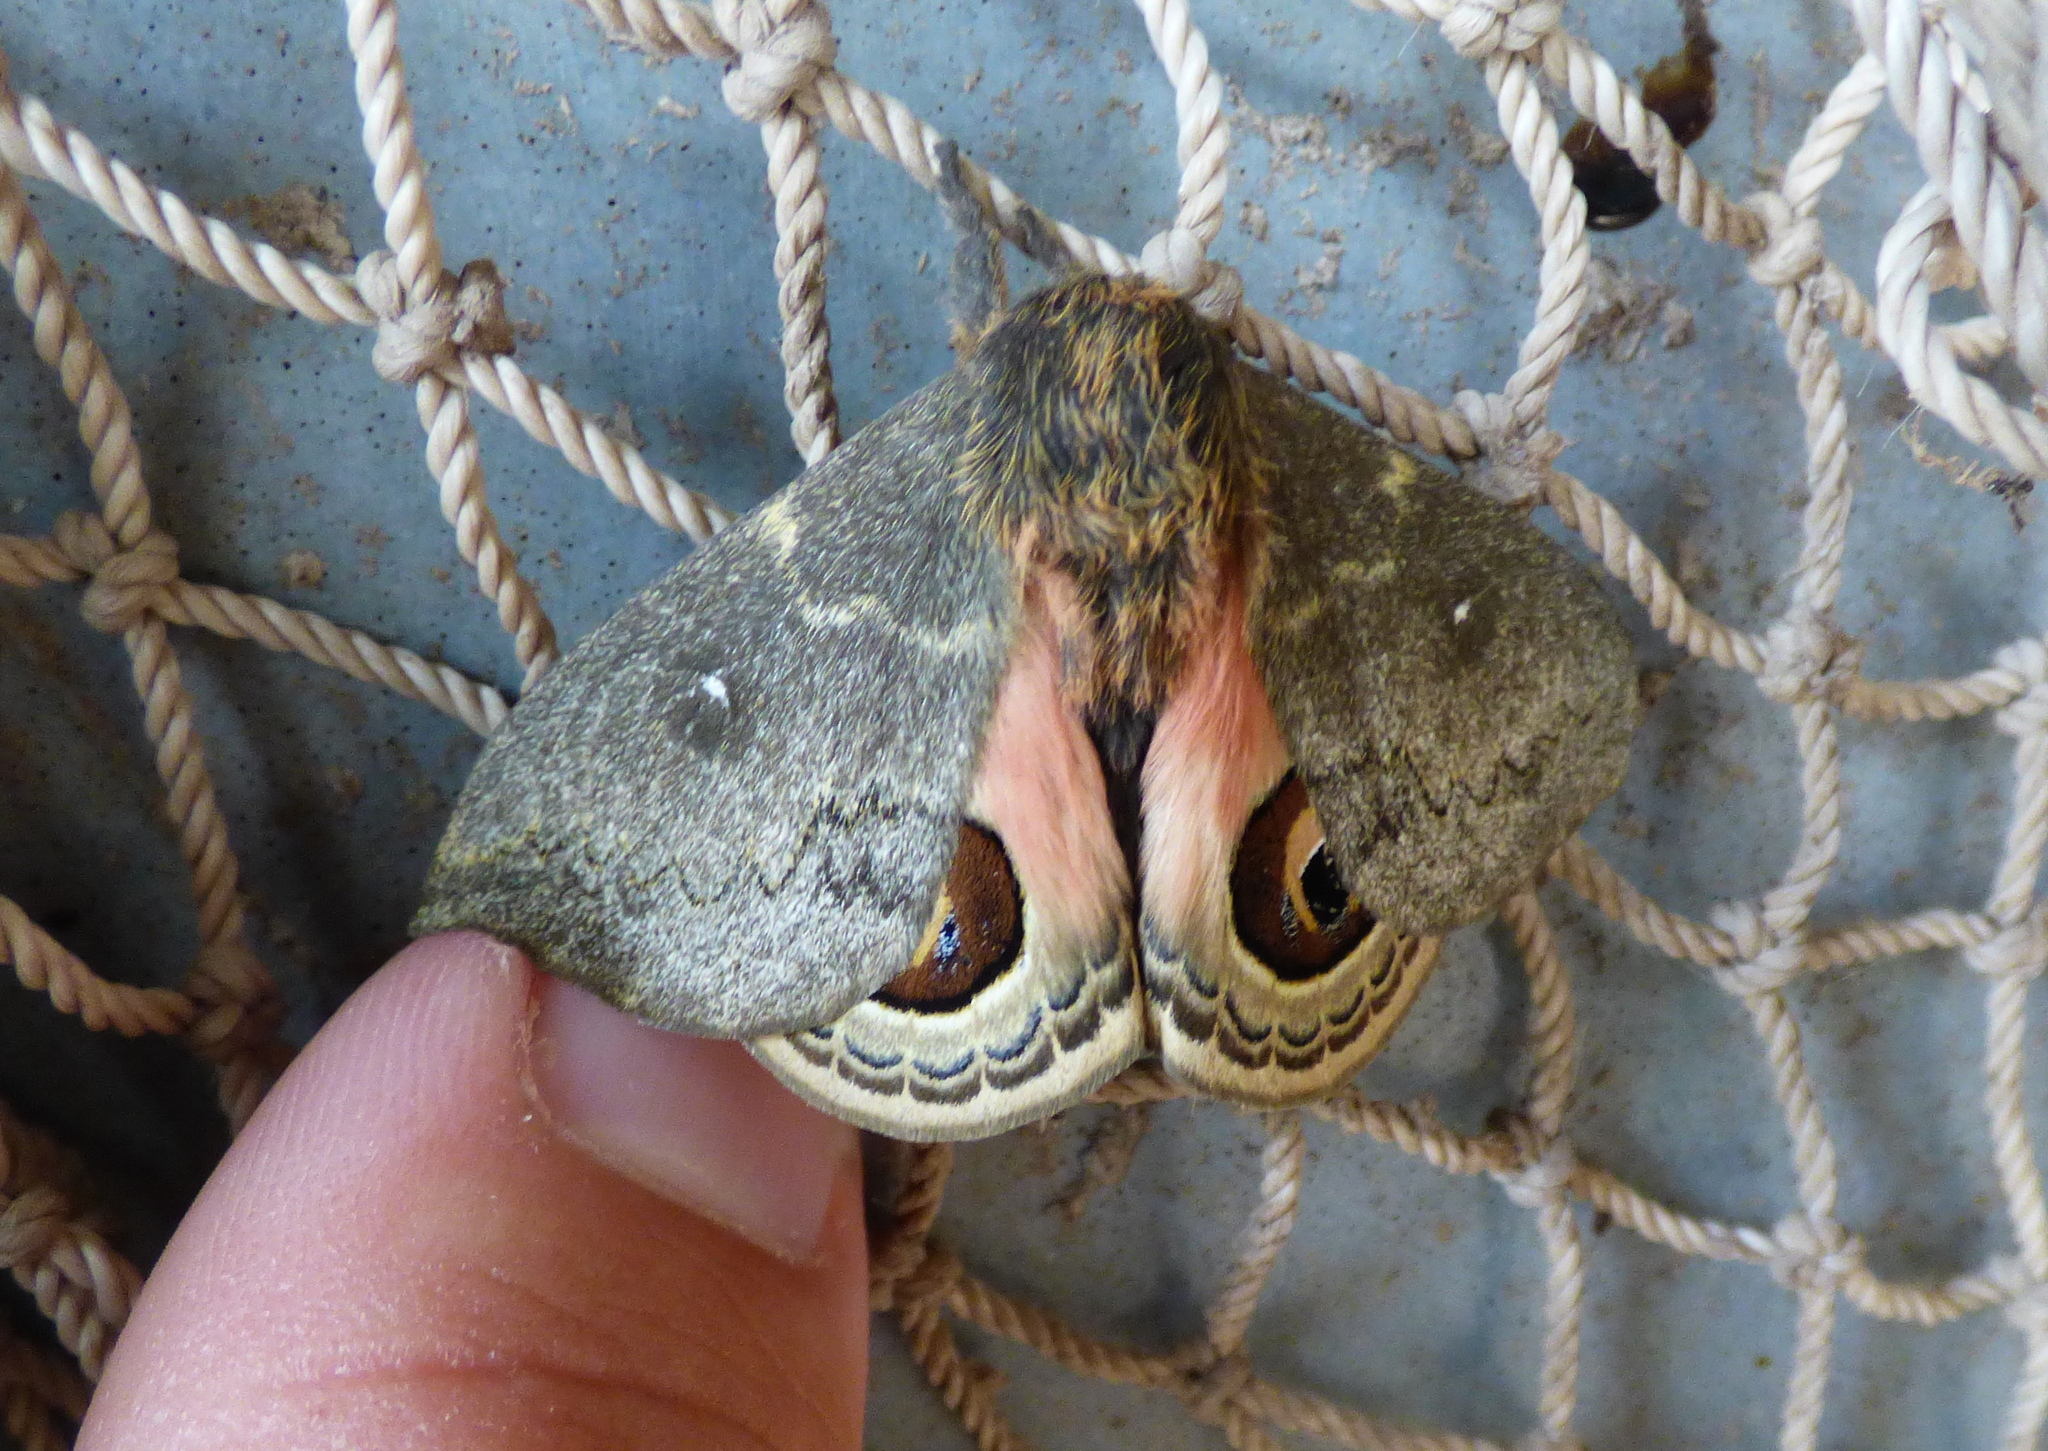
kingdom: Animalia
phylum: Arthropoda
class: Insecta
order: Lepidoptera
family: Saturniidae
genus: Leucanella
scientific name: Leucanella aspera
